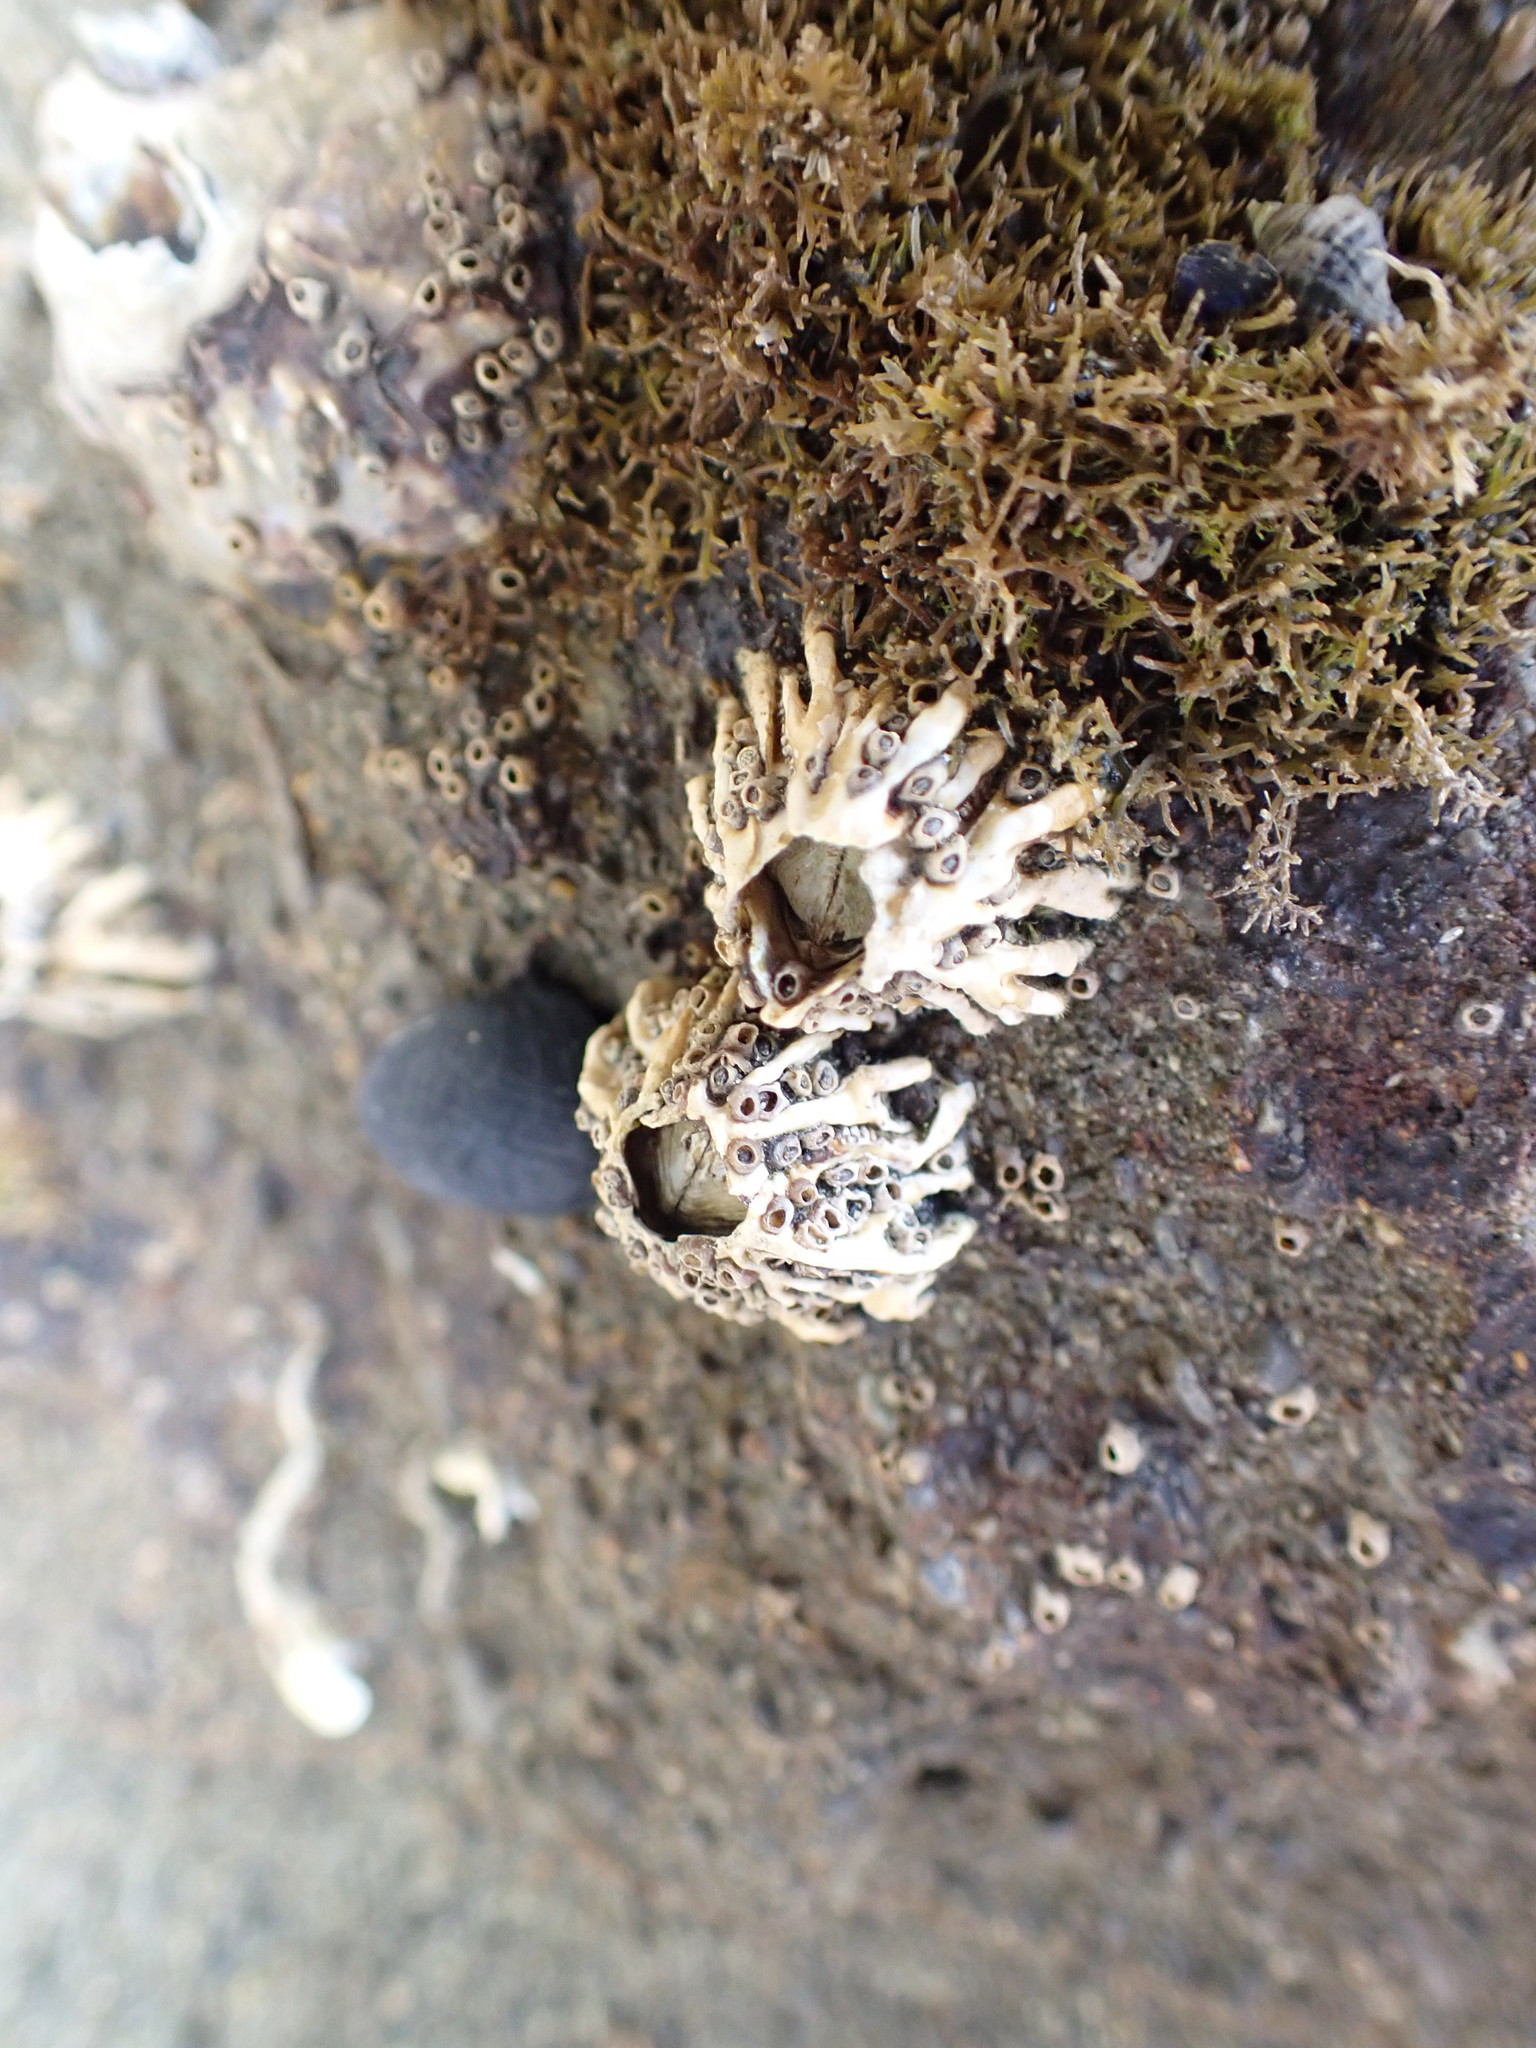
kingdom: Animalia
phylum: Arthropoda
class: Maxillopoda
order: Sessilia
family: Tetraclitidae
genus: Epopella
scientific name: Epopella plicata
